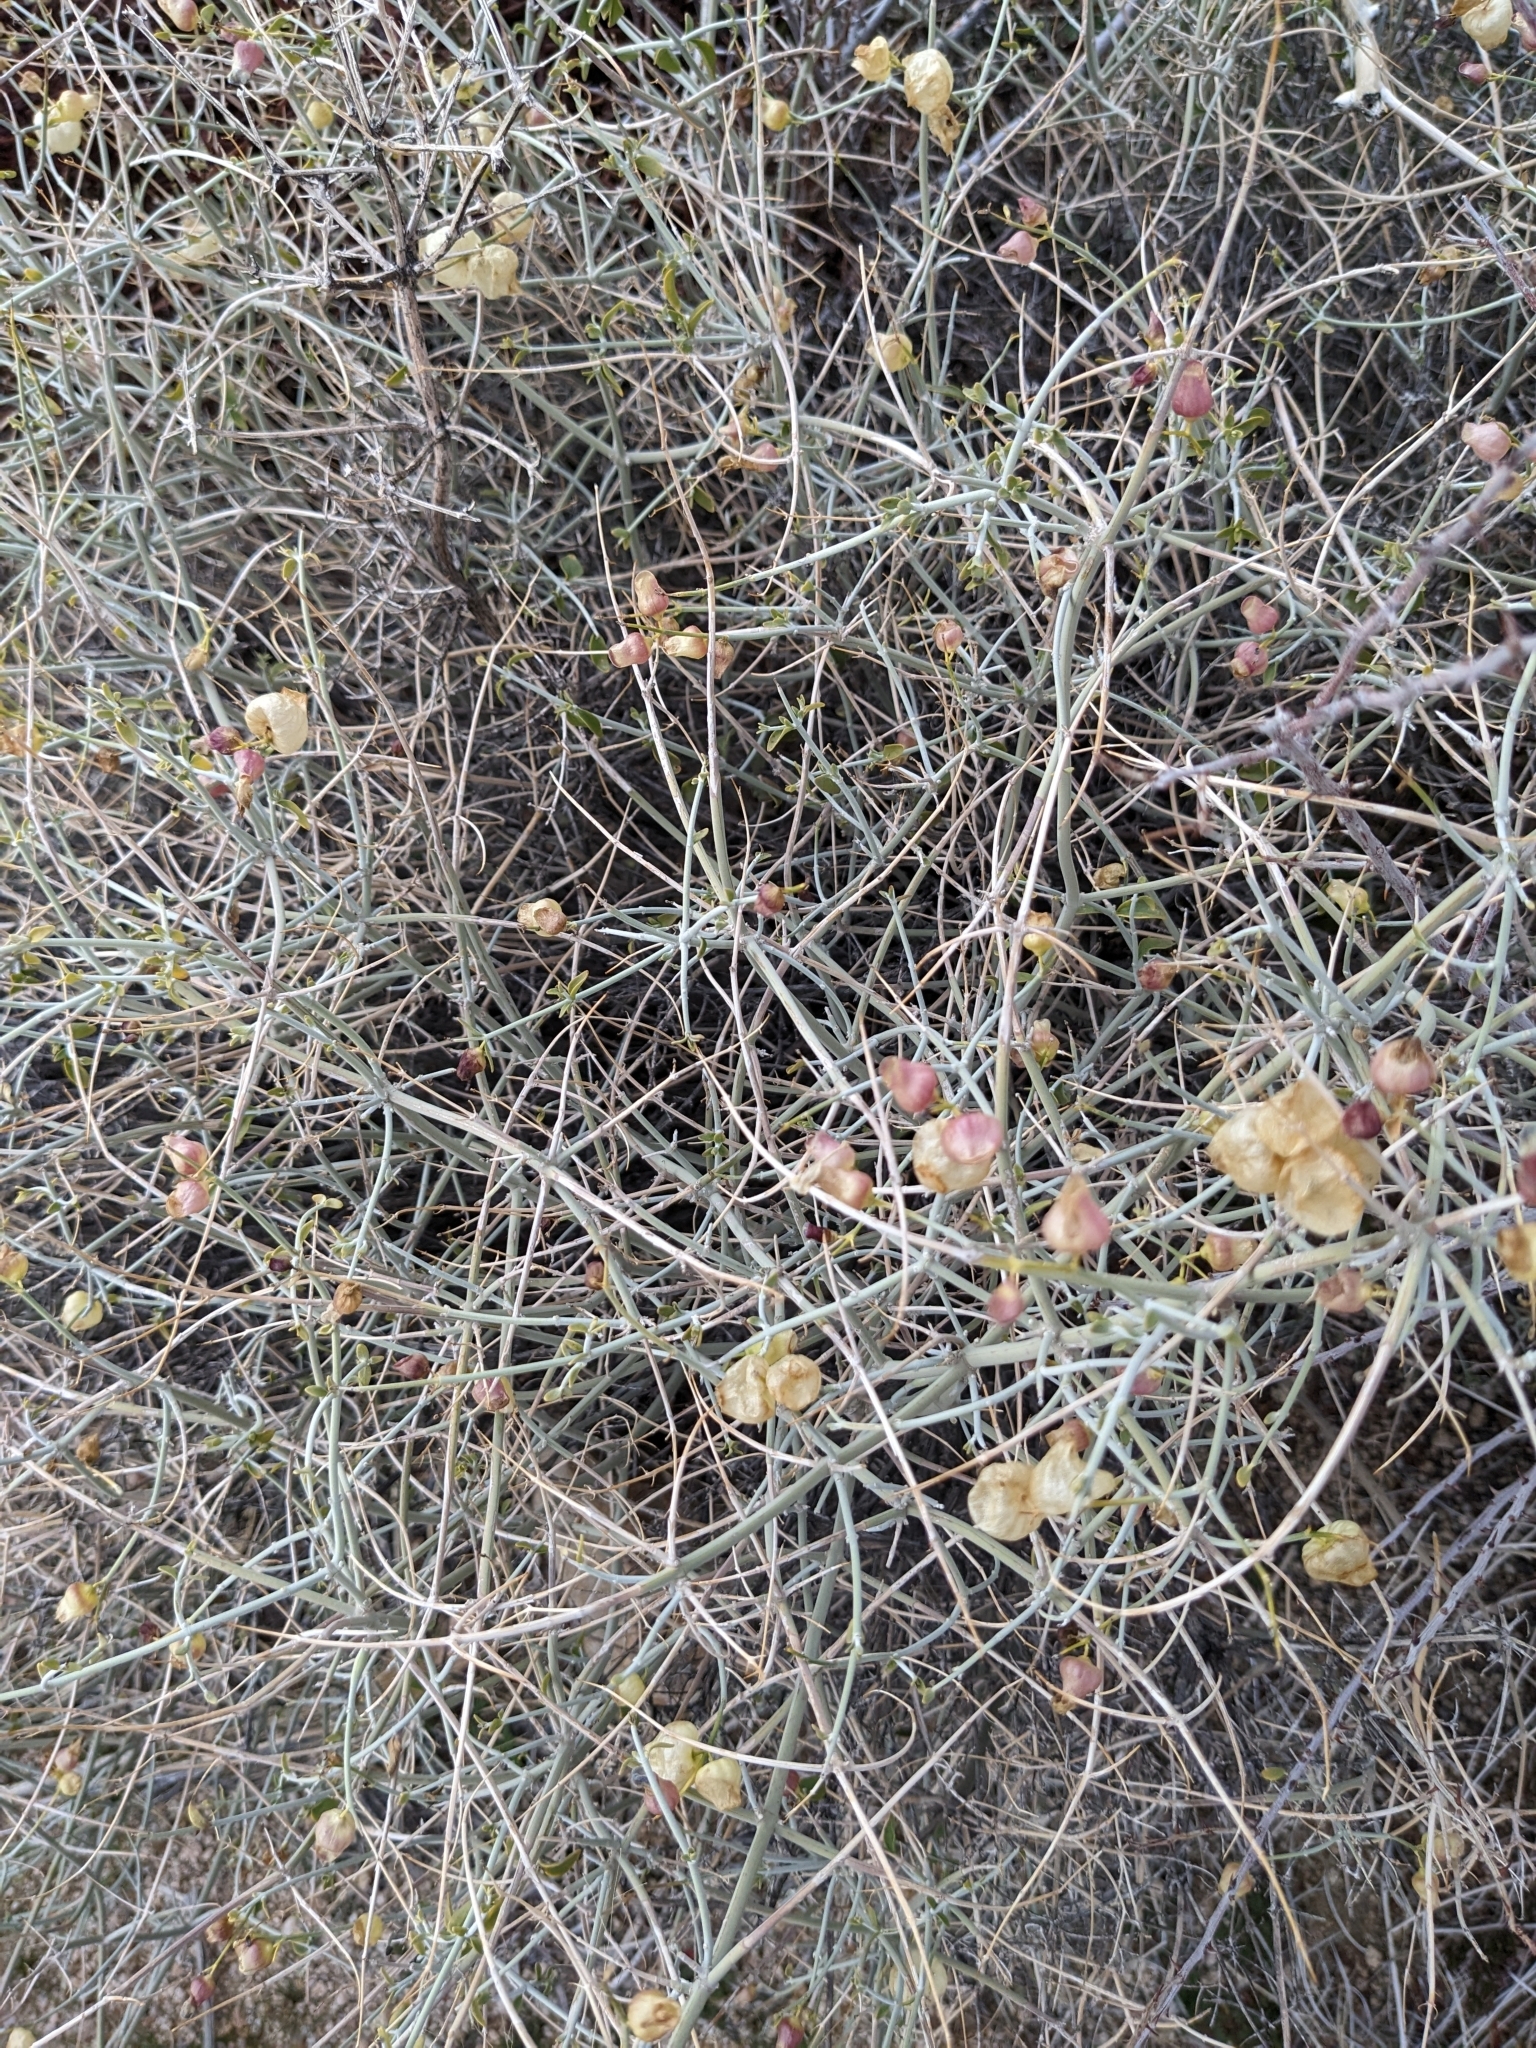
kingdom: Plantae
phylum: Tracheophyta
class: Magnoliopsida
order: Lamiales
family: Lamiaceae
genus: Scutellaria
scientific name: Scutellaria mexicana
